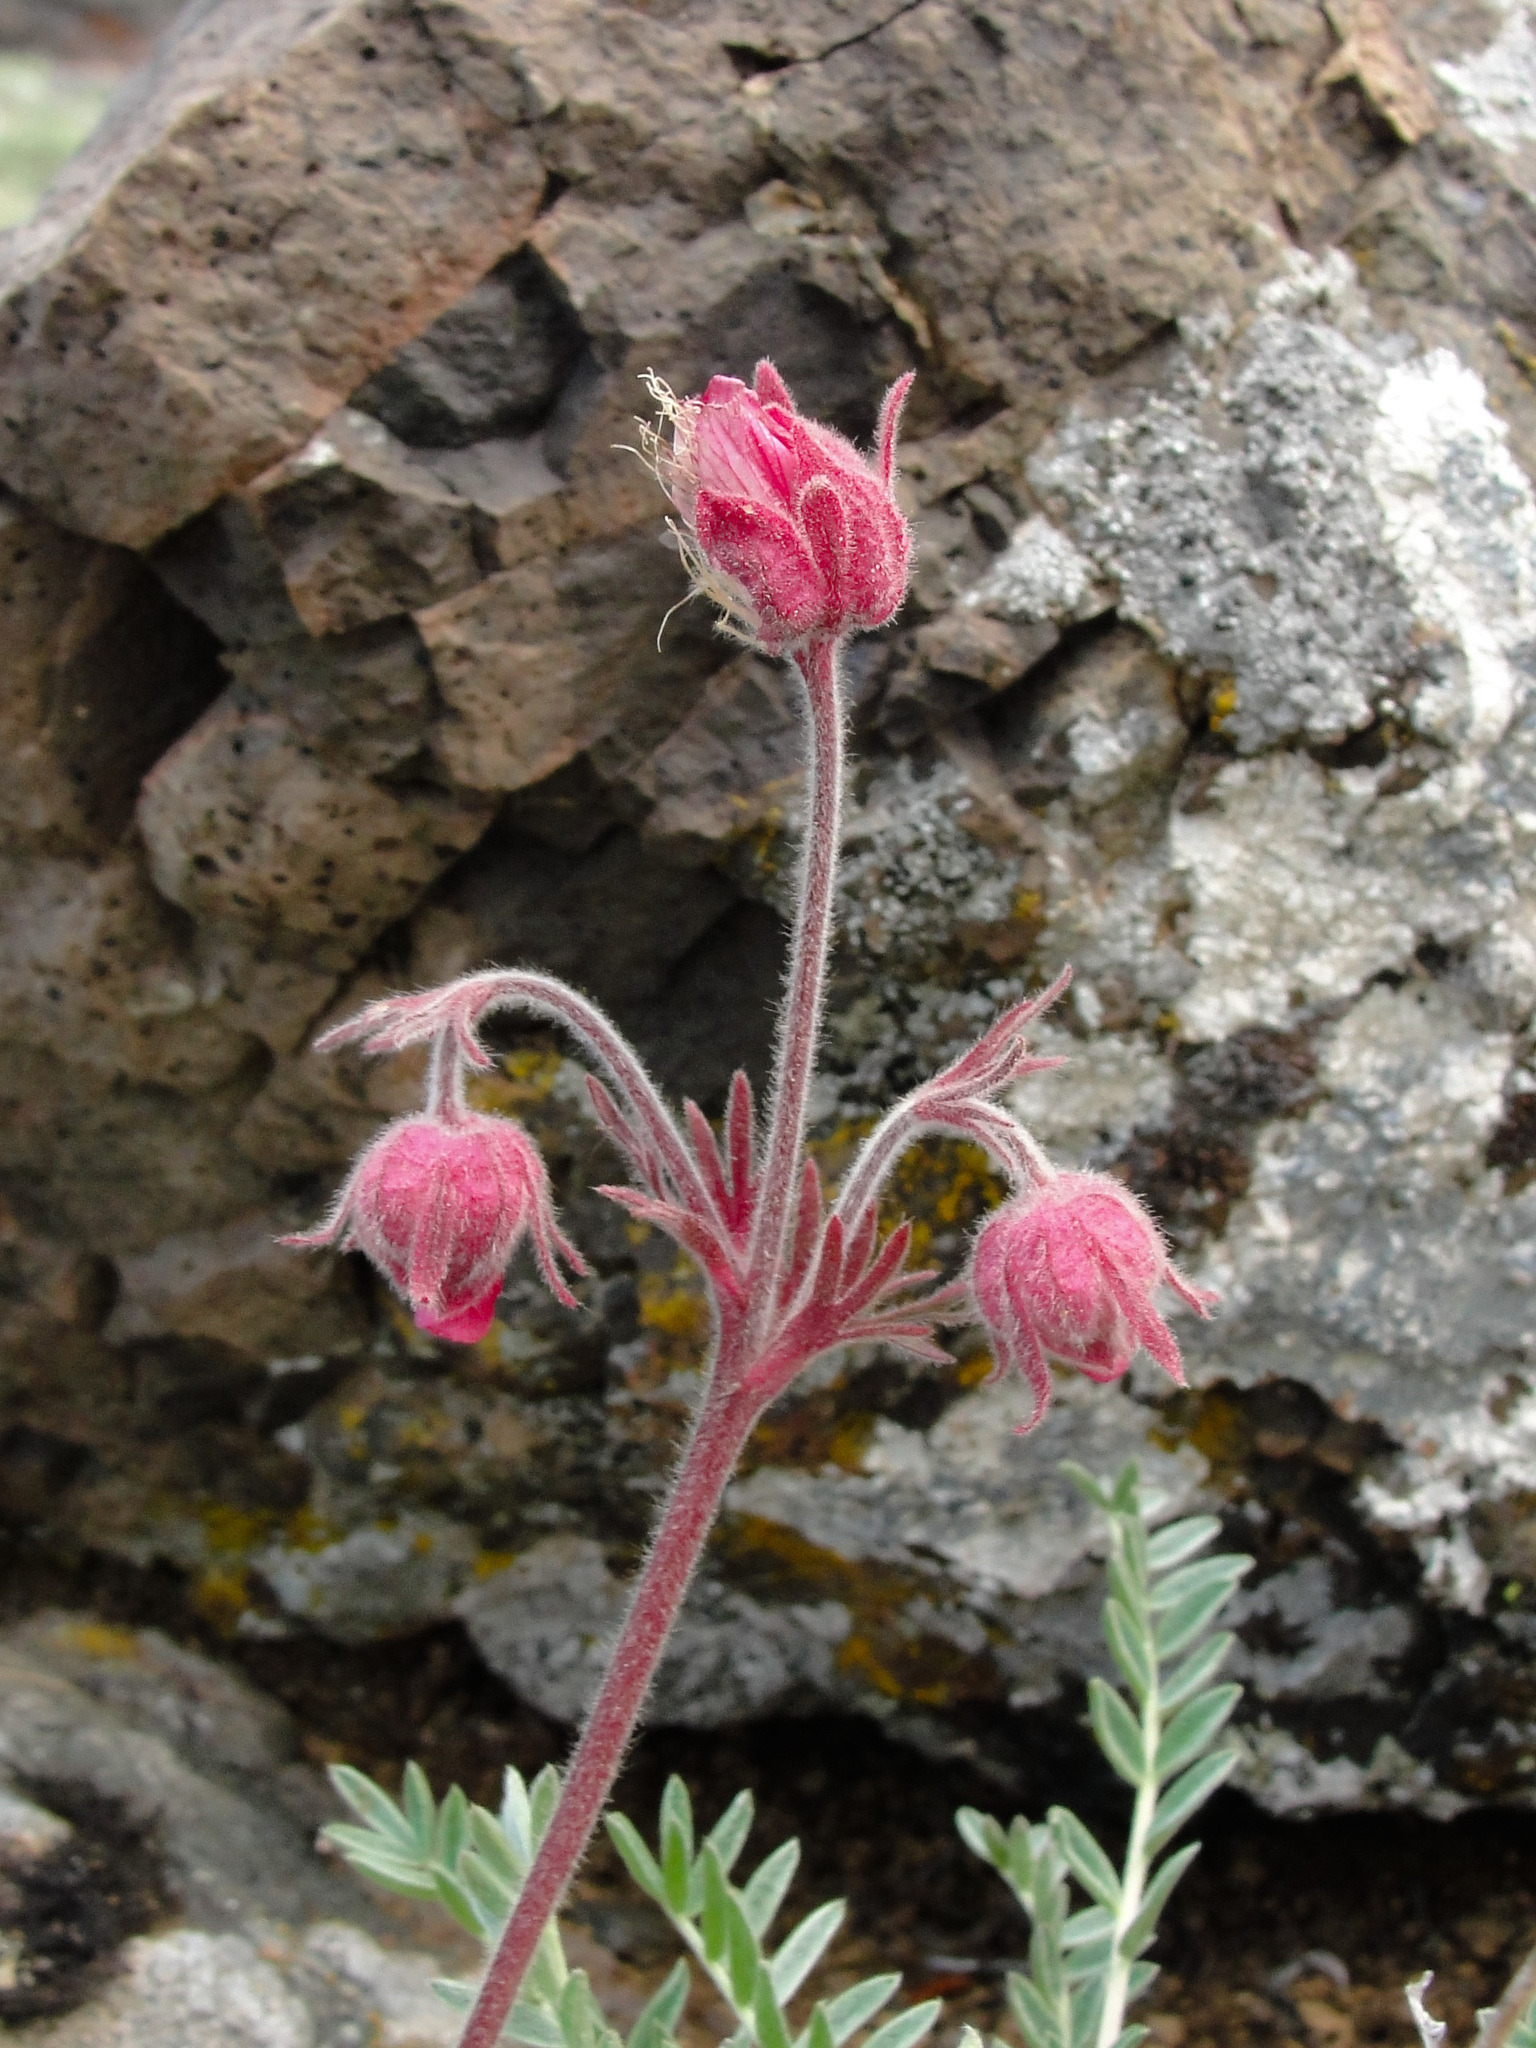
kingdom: Plantae
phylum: Tracheophyta
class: Magnoliopsida
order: Rosales
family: Rosaceae
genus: Geum
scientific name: Geum triflorum
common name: Old man's whiskers
